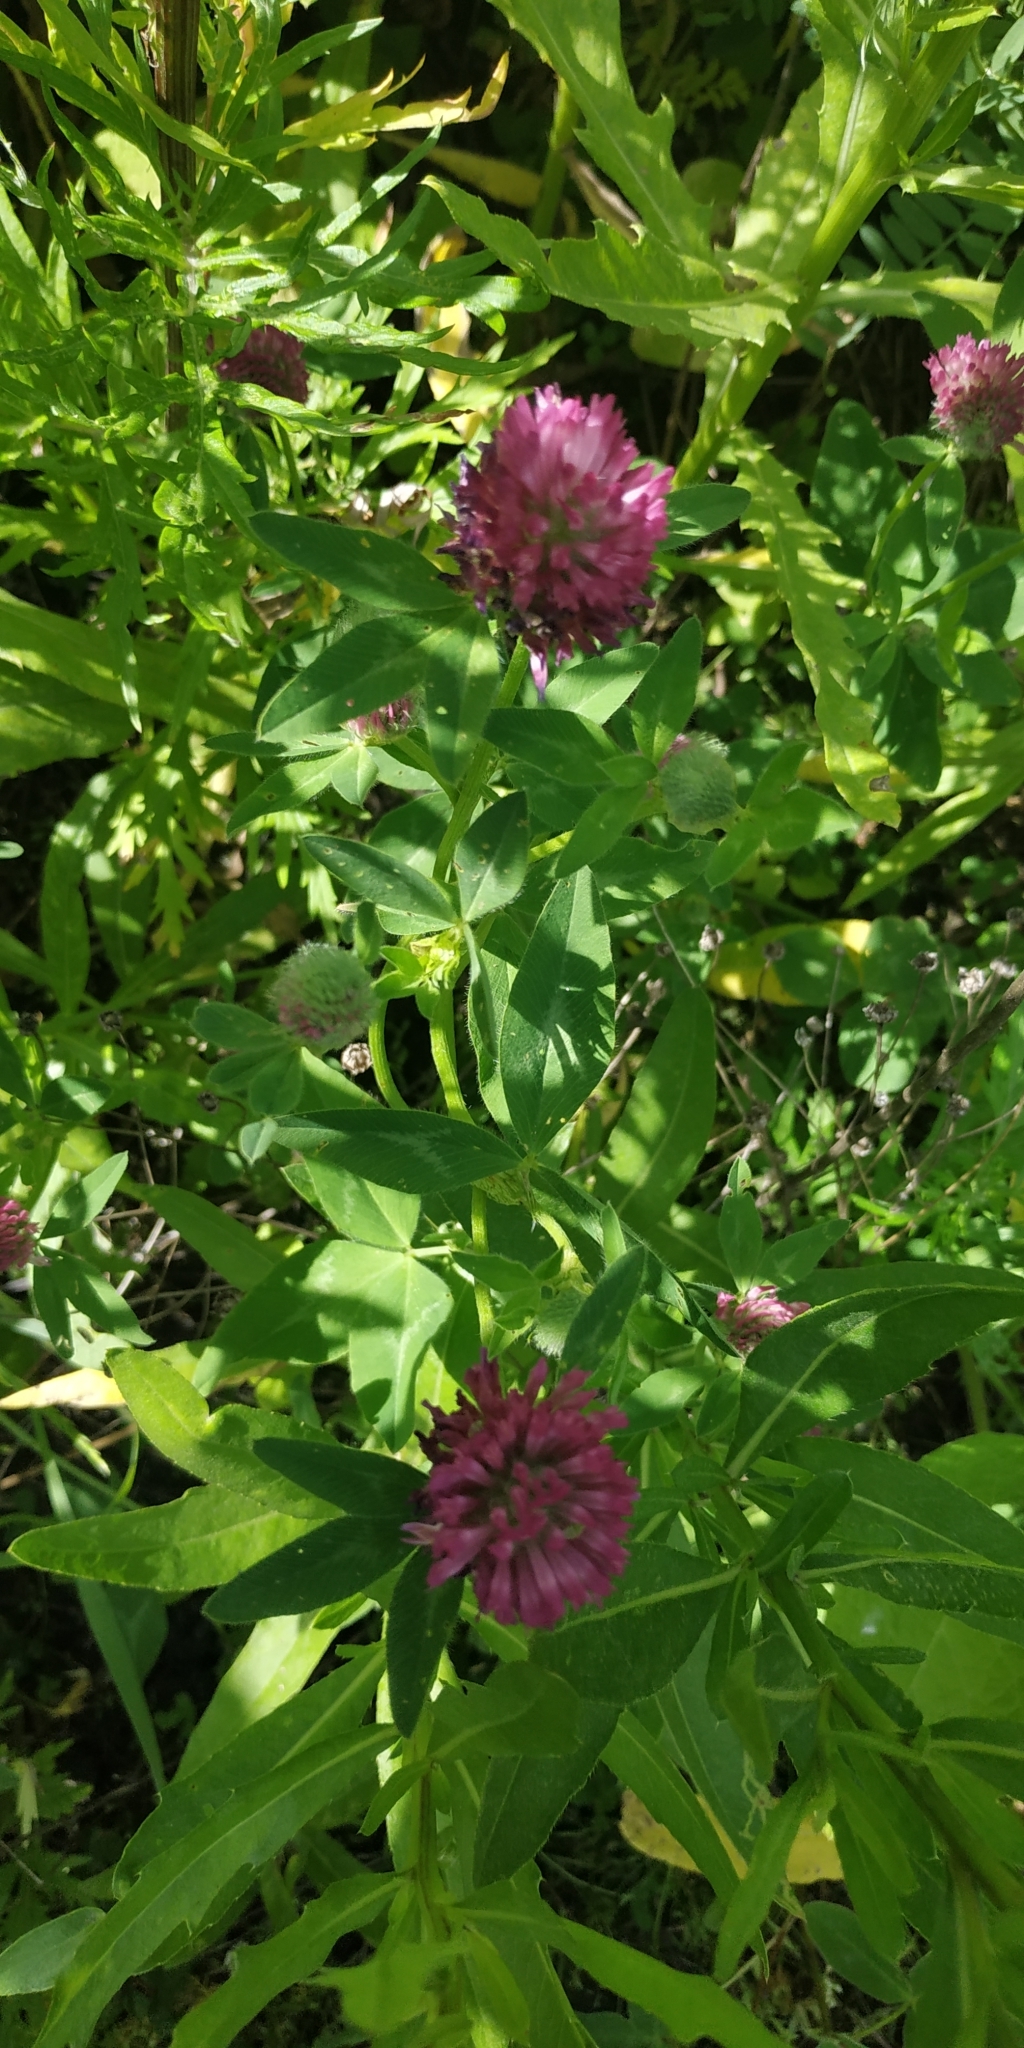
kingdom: Plantae
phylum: Tracheophyta
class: Magnoliopsida
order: Fabales
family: Fabaceae
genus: Trifolium
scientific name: Trifolium medium
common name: Zigzag clover
